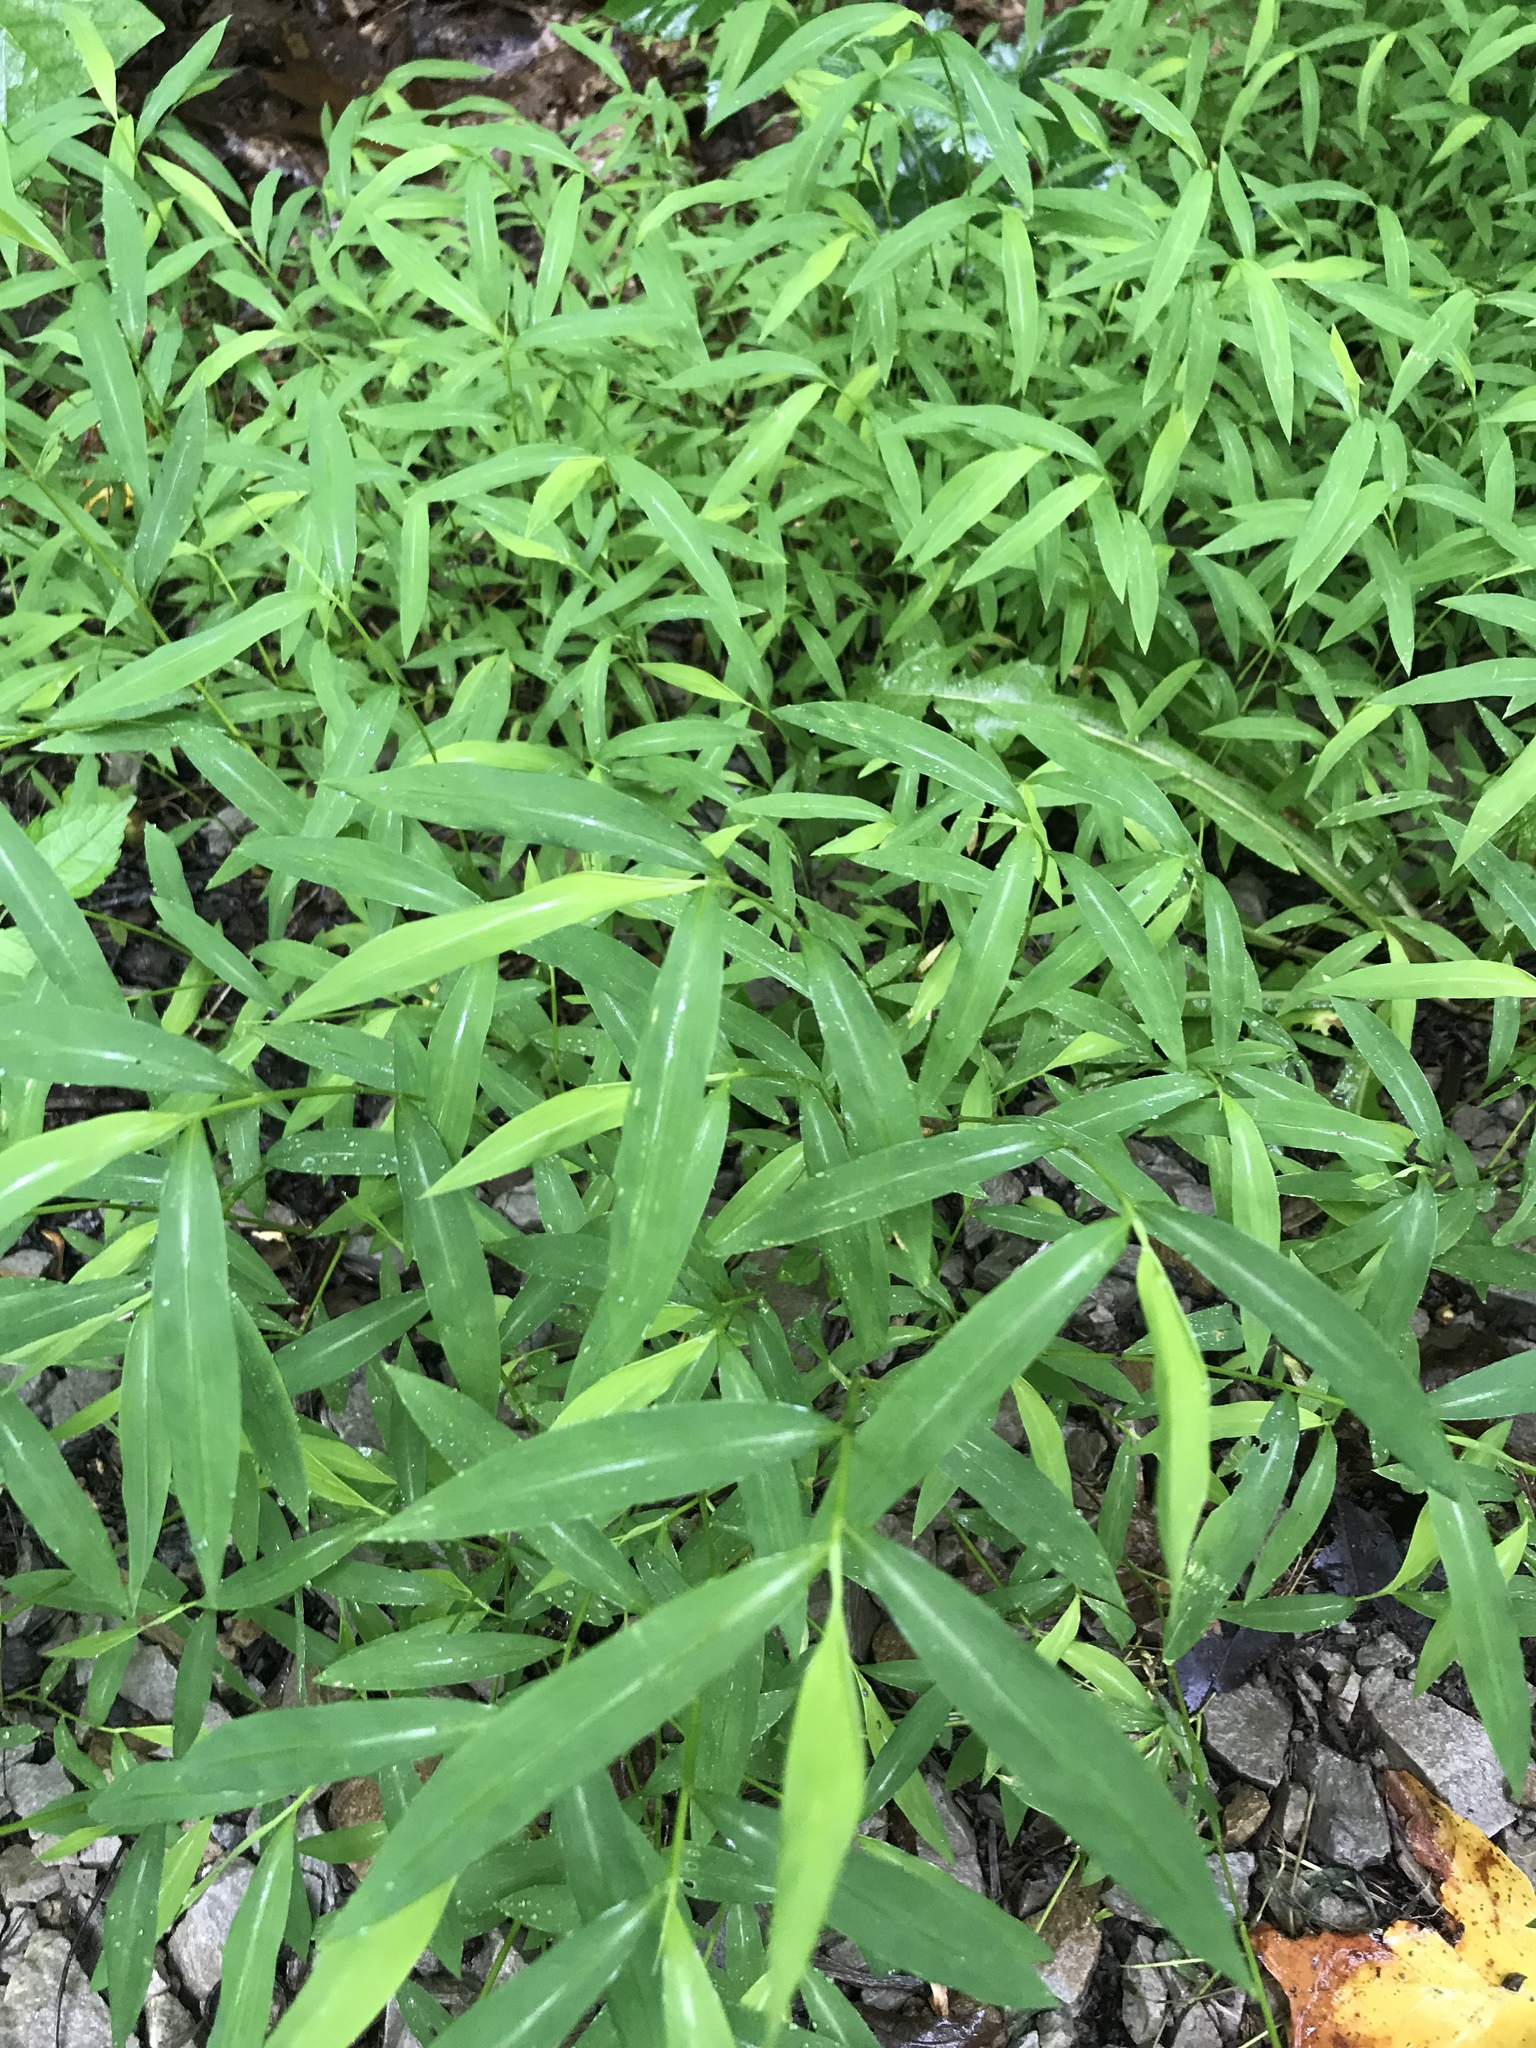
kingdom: Plantae
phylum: Tracheophyta
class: Liliopsida
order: Poales
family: Poaceae
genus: Microstegium
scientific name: Microstegium vimineum
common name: Japanese stiltgrass
